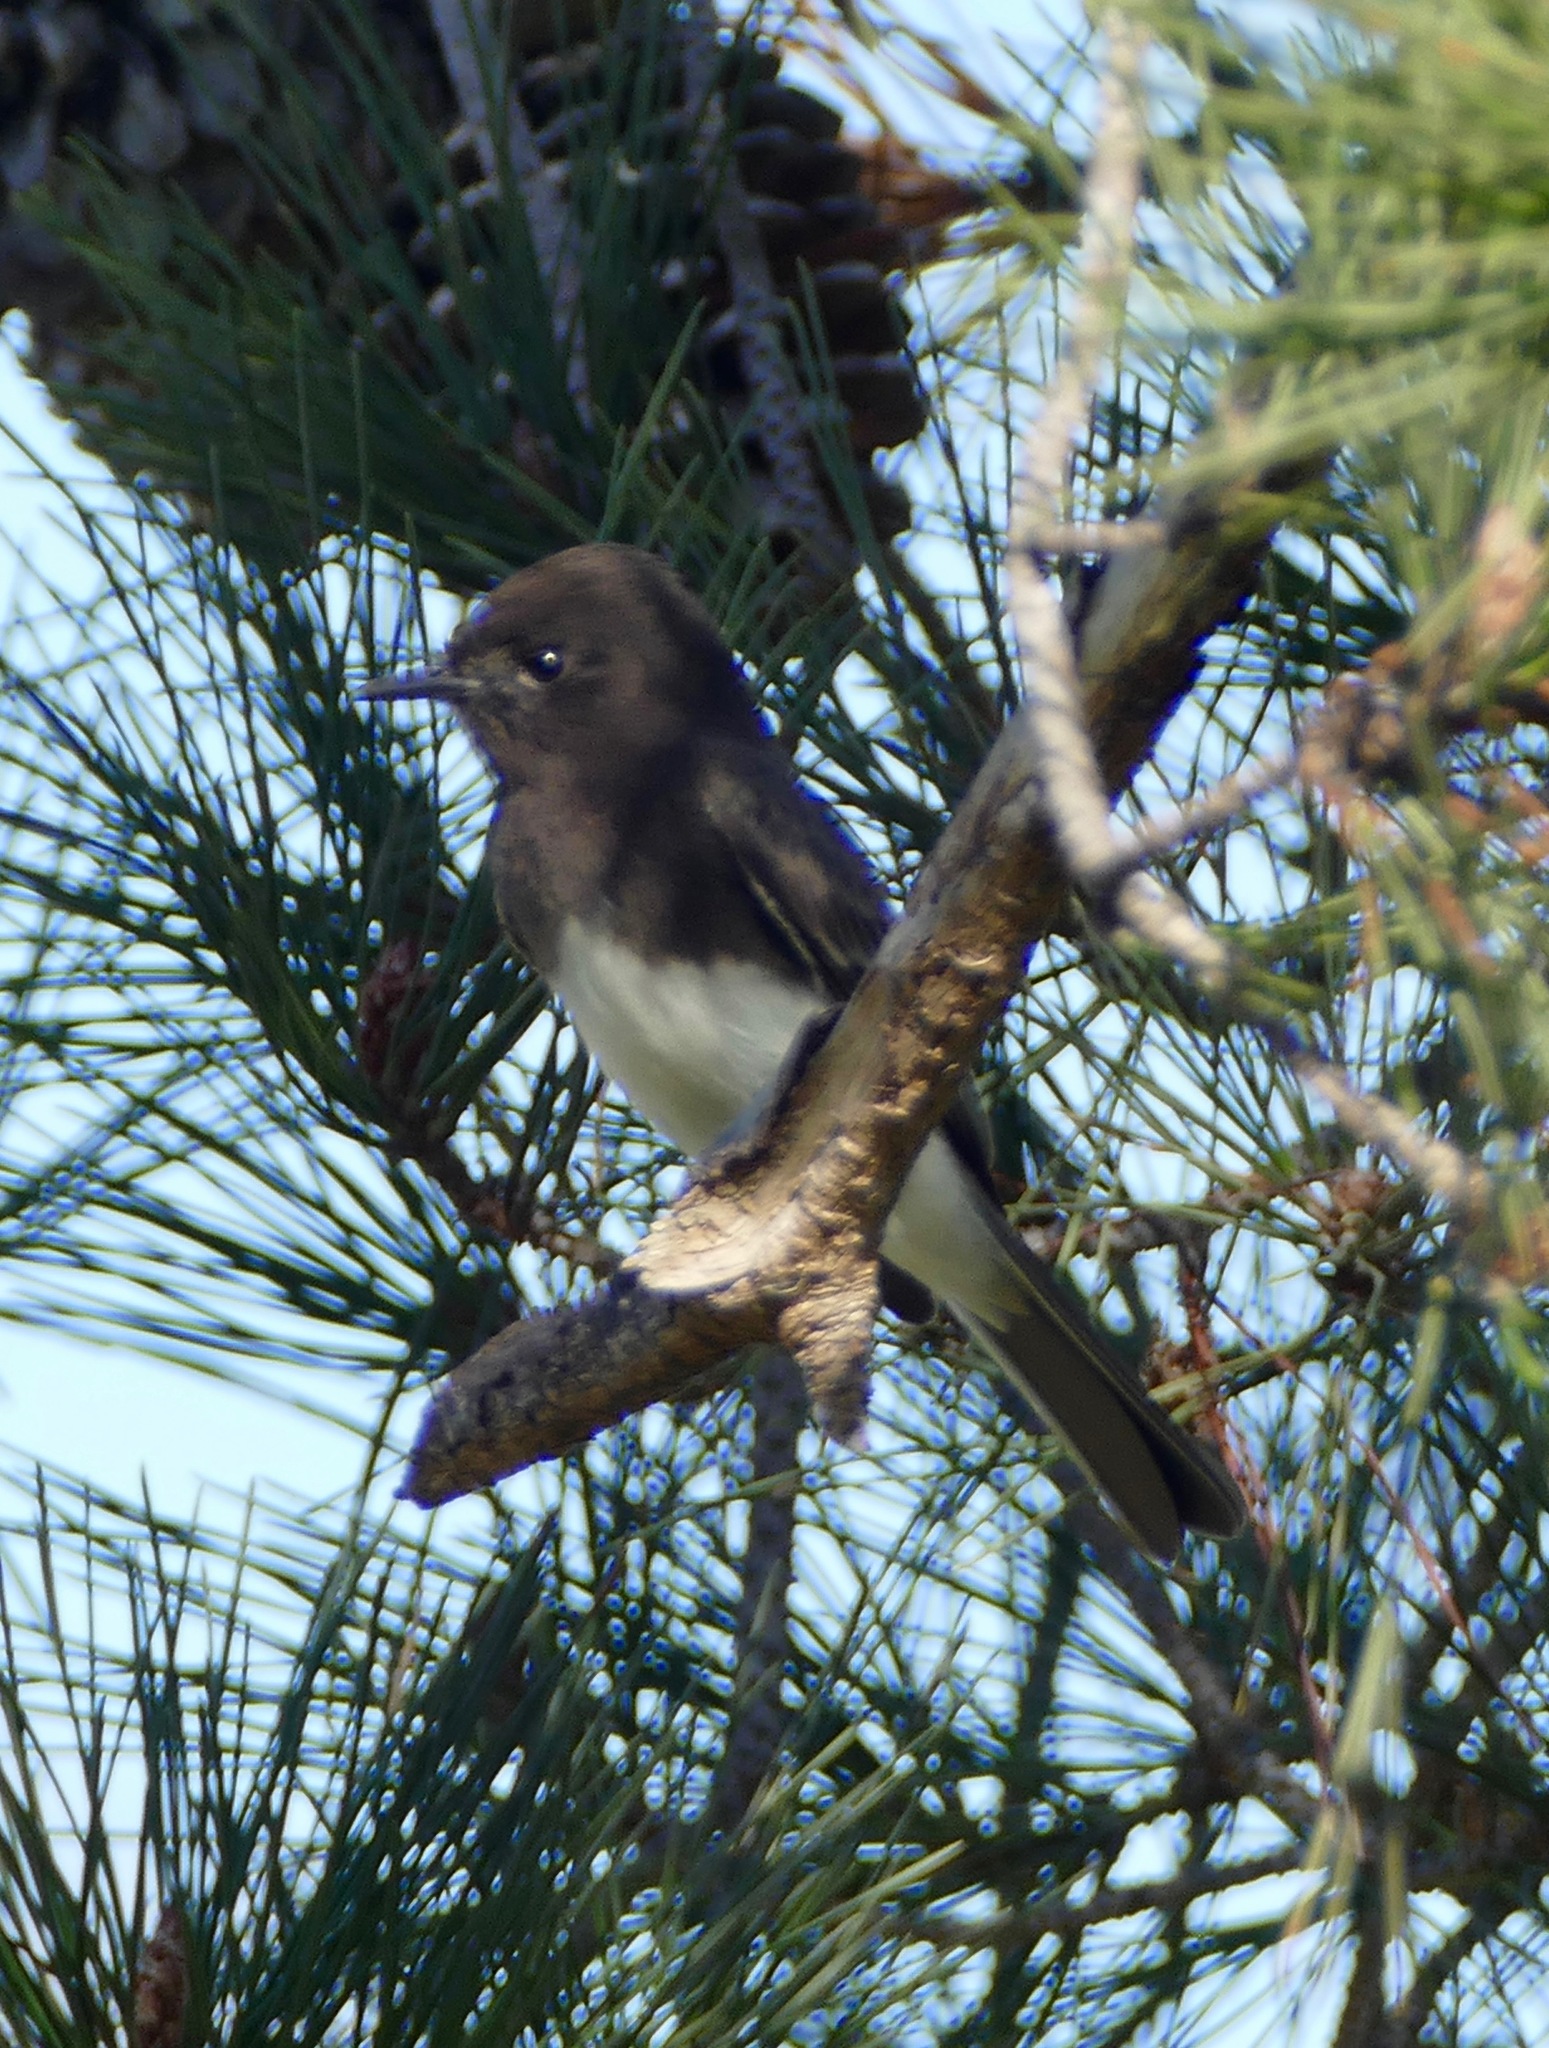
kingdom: Animalia
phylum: Chordata
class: Aves
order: Passeriformes
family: Tyrannidae
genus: Sayornis
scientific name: Sayornis nigricans
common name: Black phoebe
